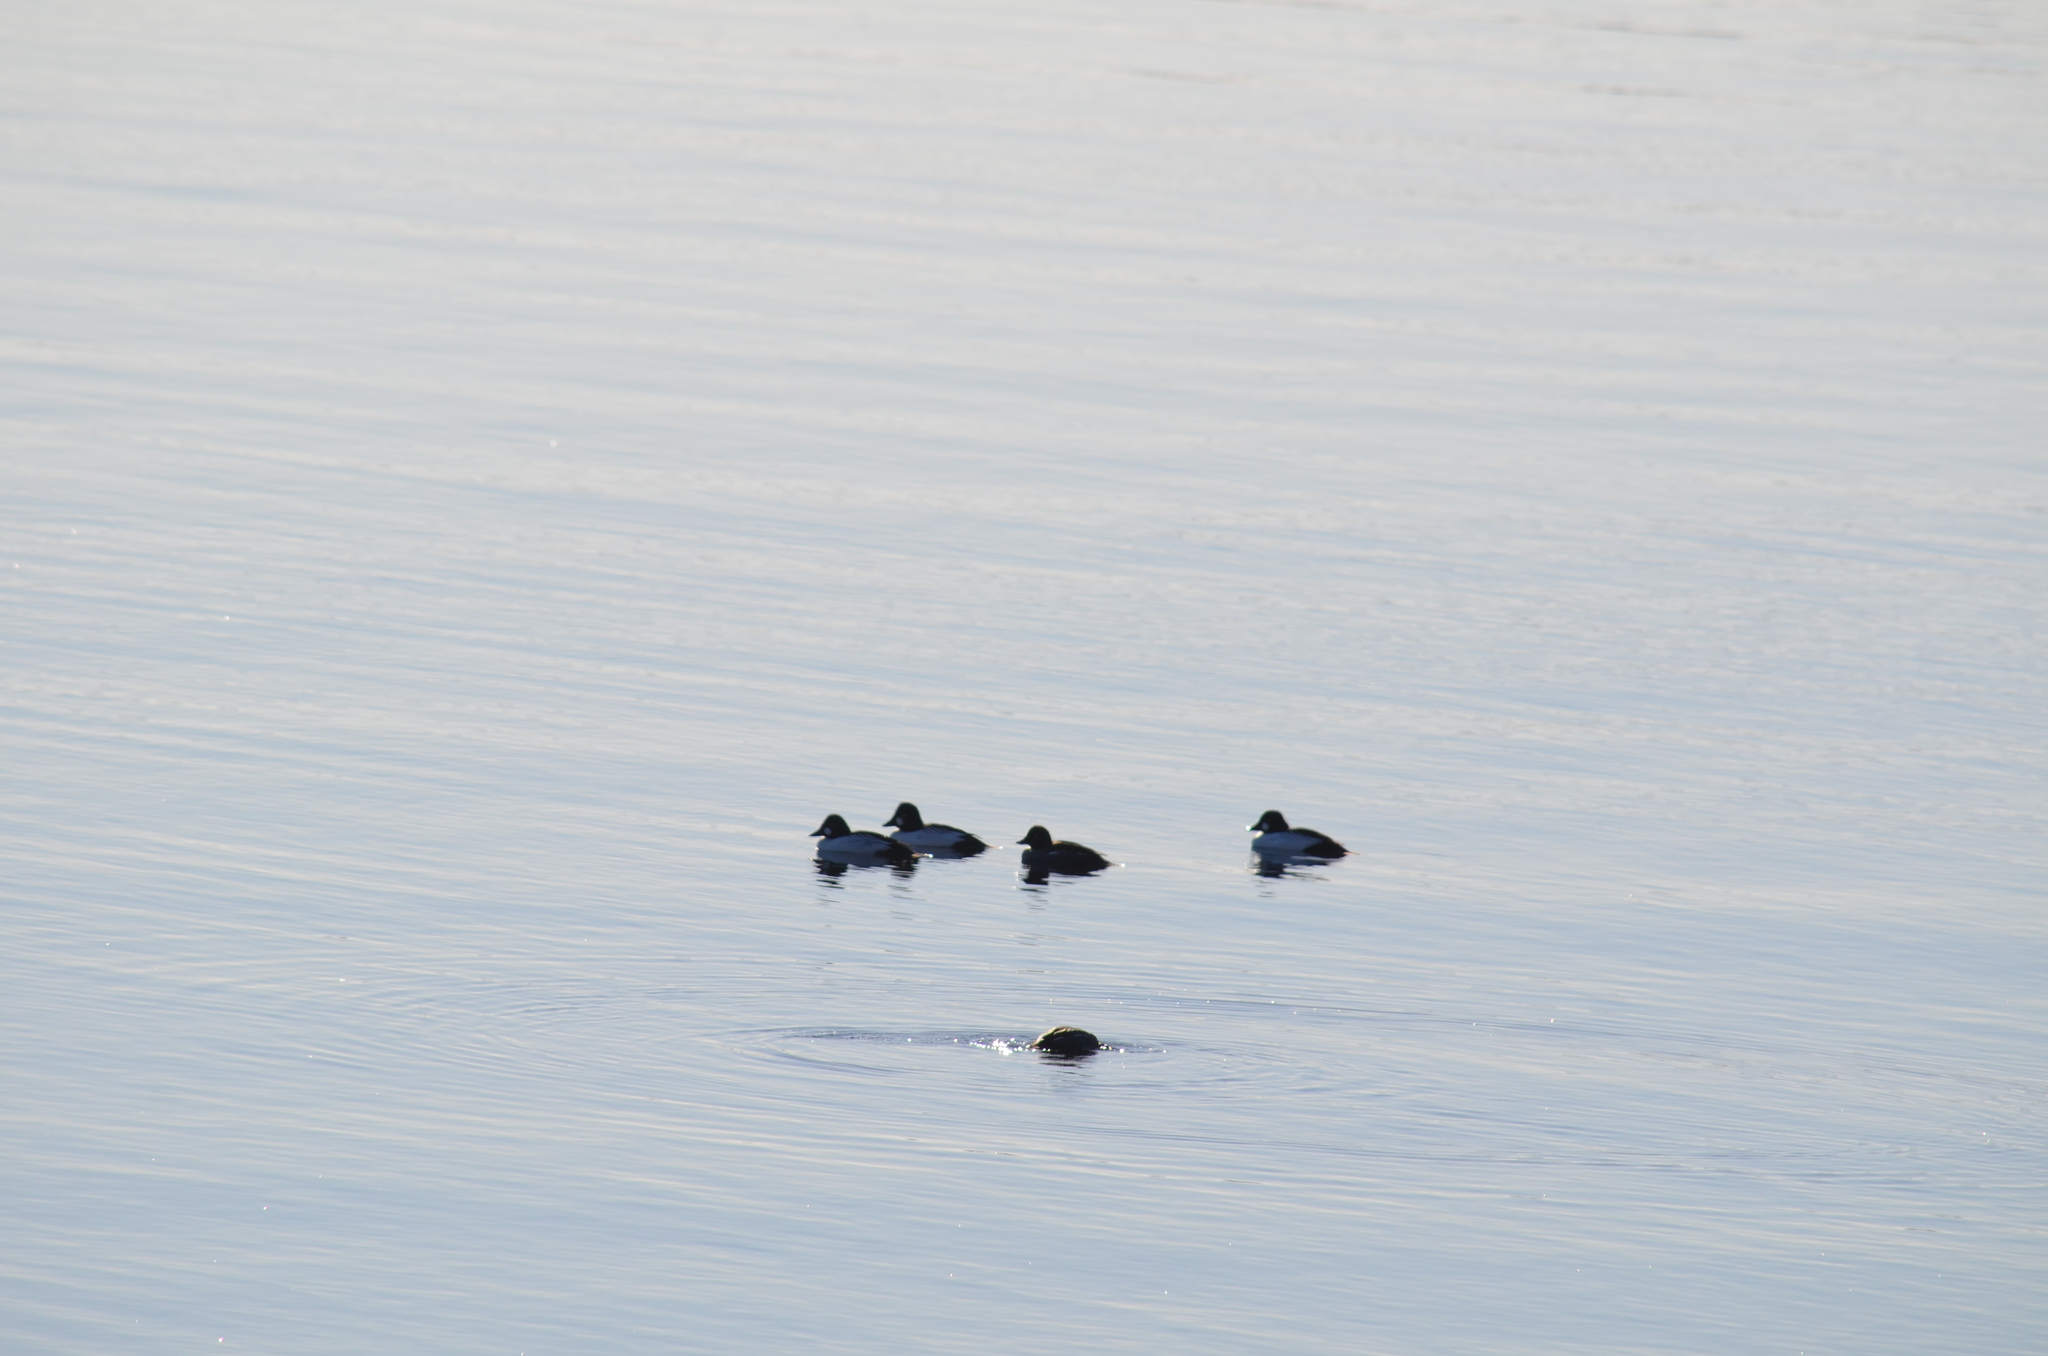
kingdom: Animalia
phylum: Chordata
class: Aves
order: Anseriformes
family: Anatidae
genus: Bucephala
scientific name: Bucephala clangula
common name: Common goldeneye
